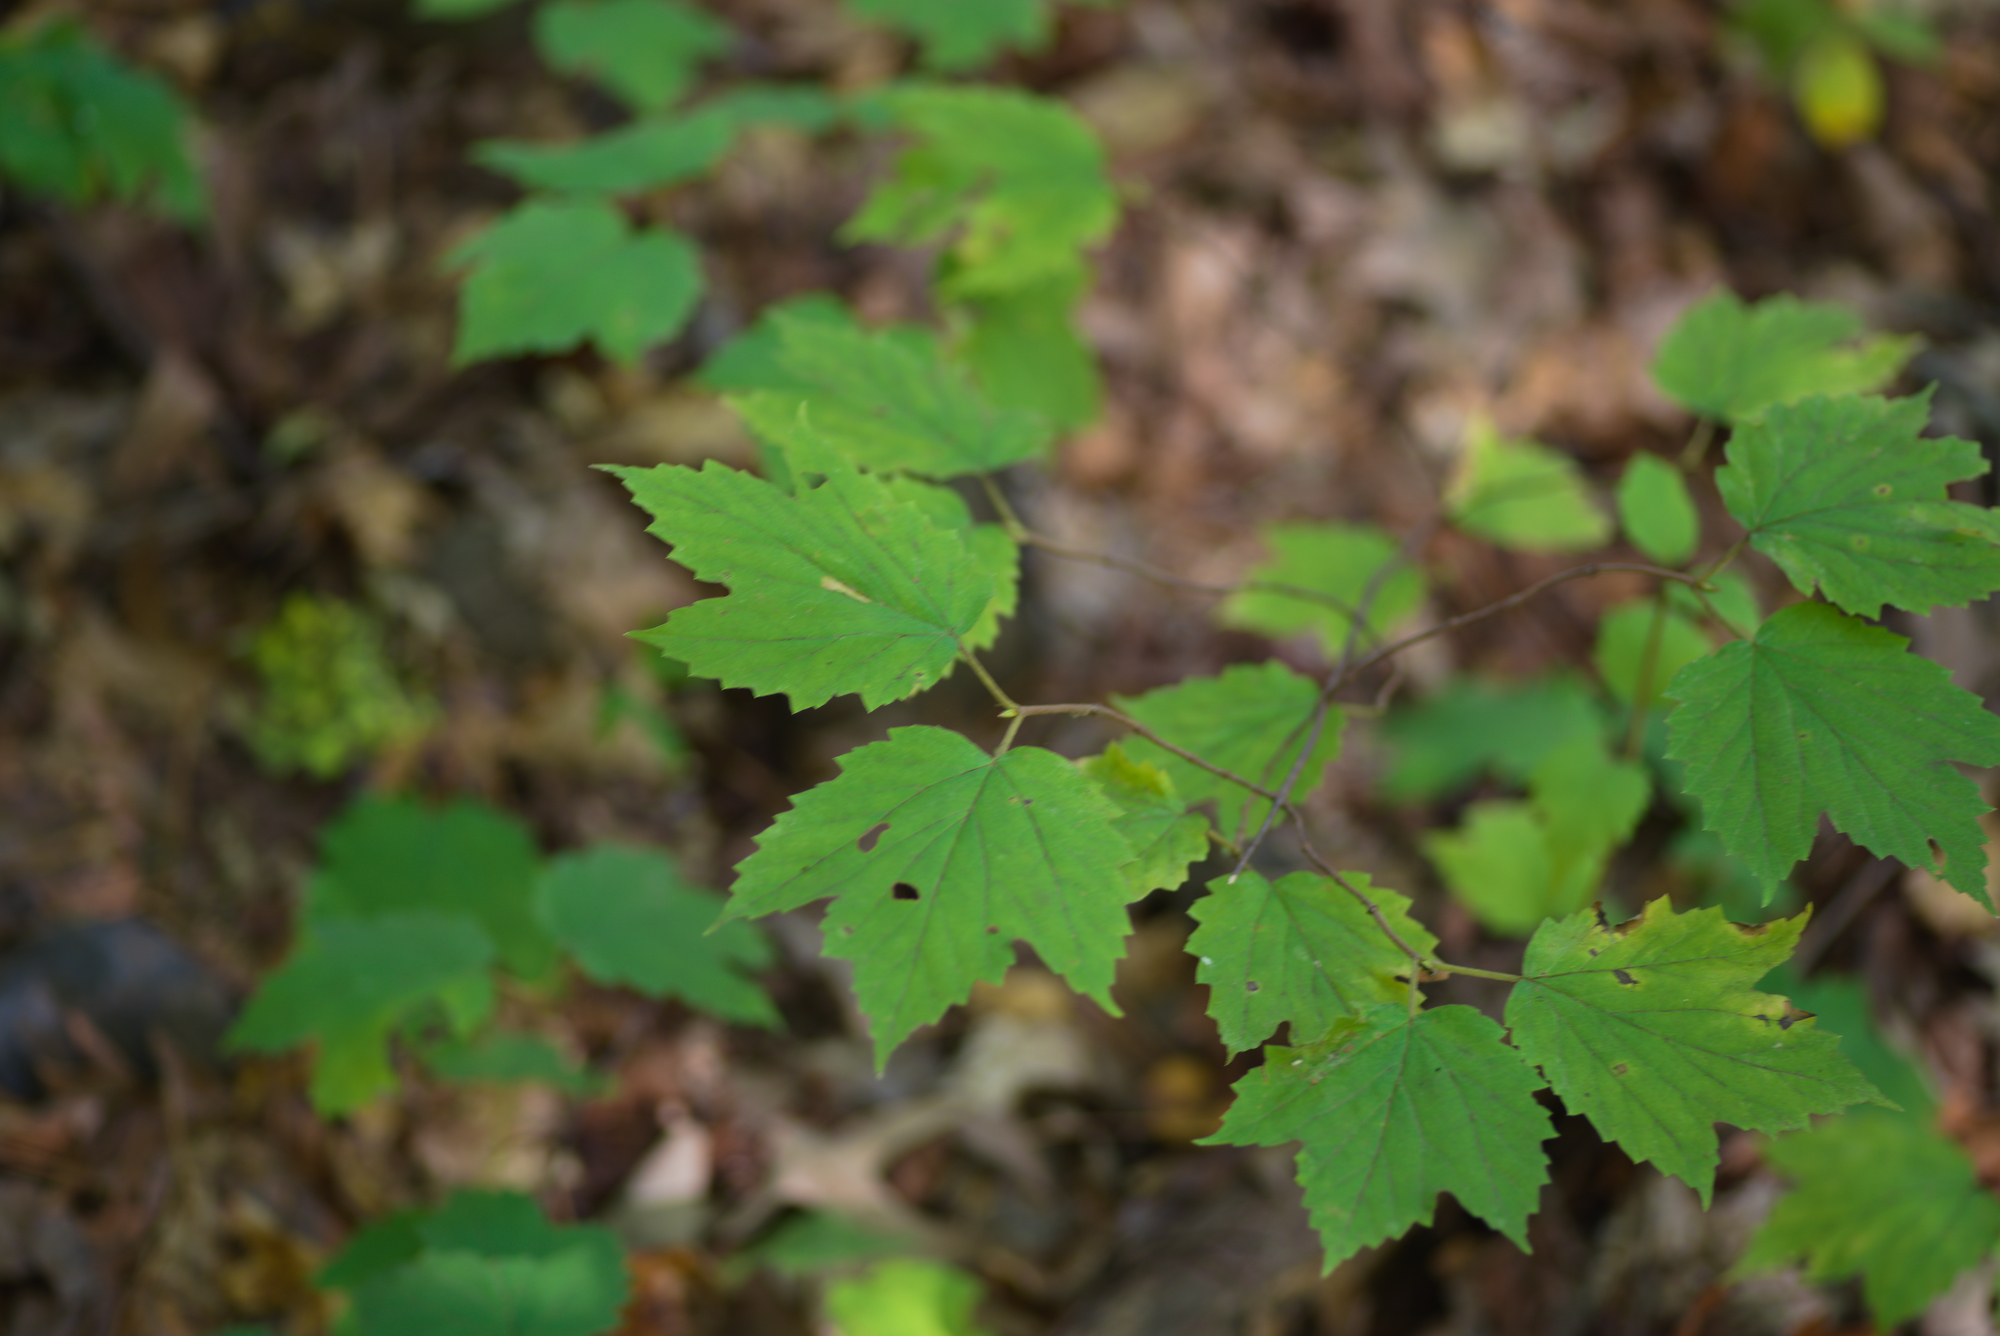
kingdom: Plantae
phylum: Tracheophyta
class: Magnoliopsida
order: Dipsacales
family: Viburnaceae
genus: Viburnum
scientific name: Viburnum acerifolium
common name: Dockmackie
